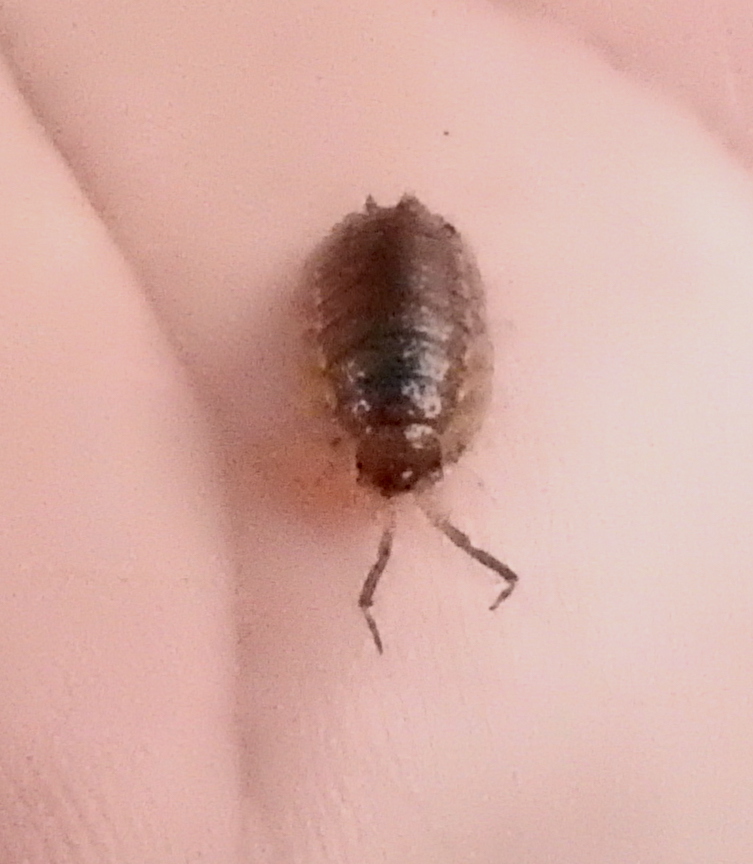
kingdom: Animalia
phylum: Arthropoda
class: Malacostraca
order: Isopoda
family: Porcellionidae
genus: Porcellio
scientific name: Porcellio scaber
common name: Common rough woodlouse
